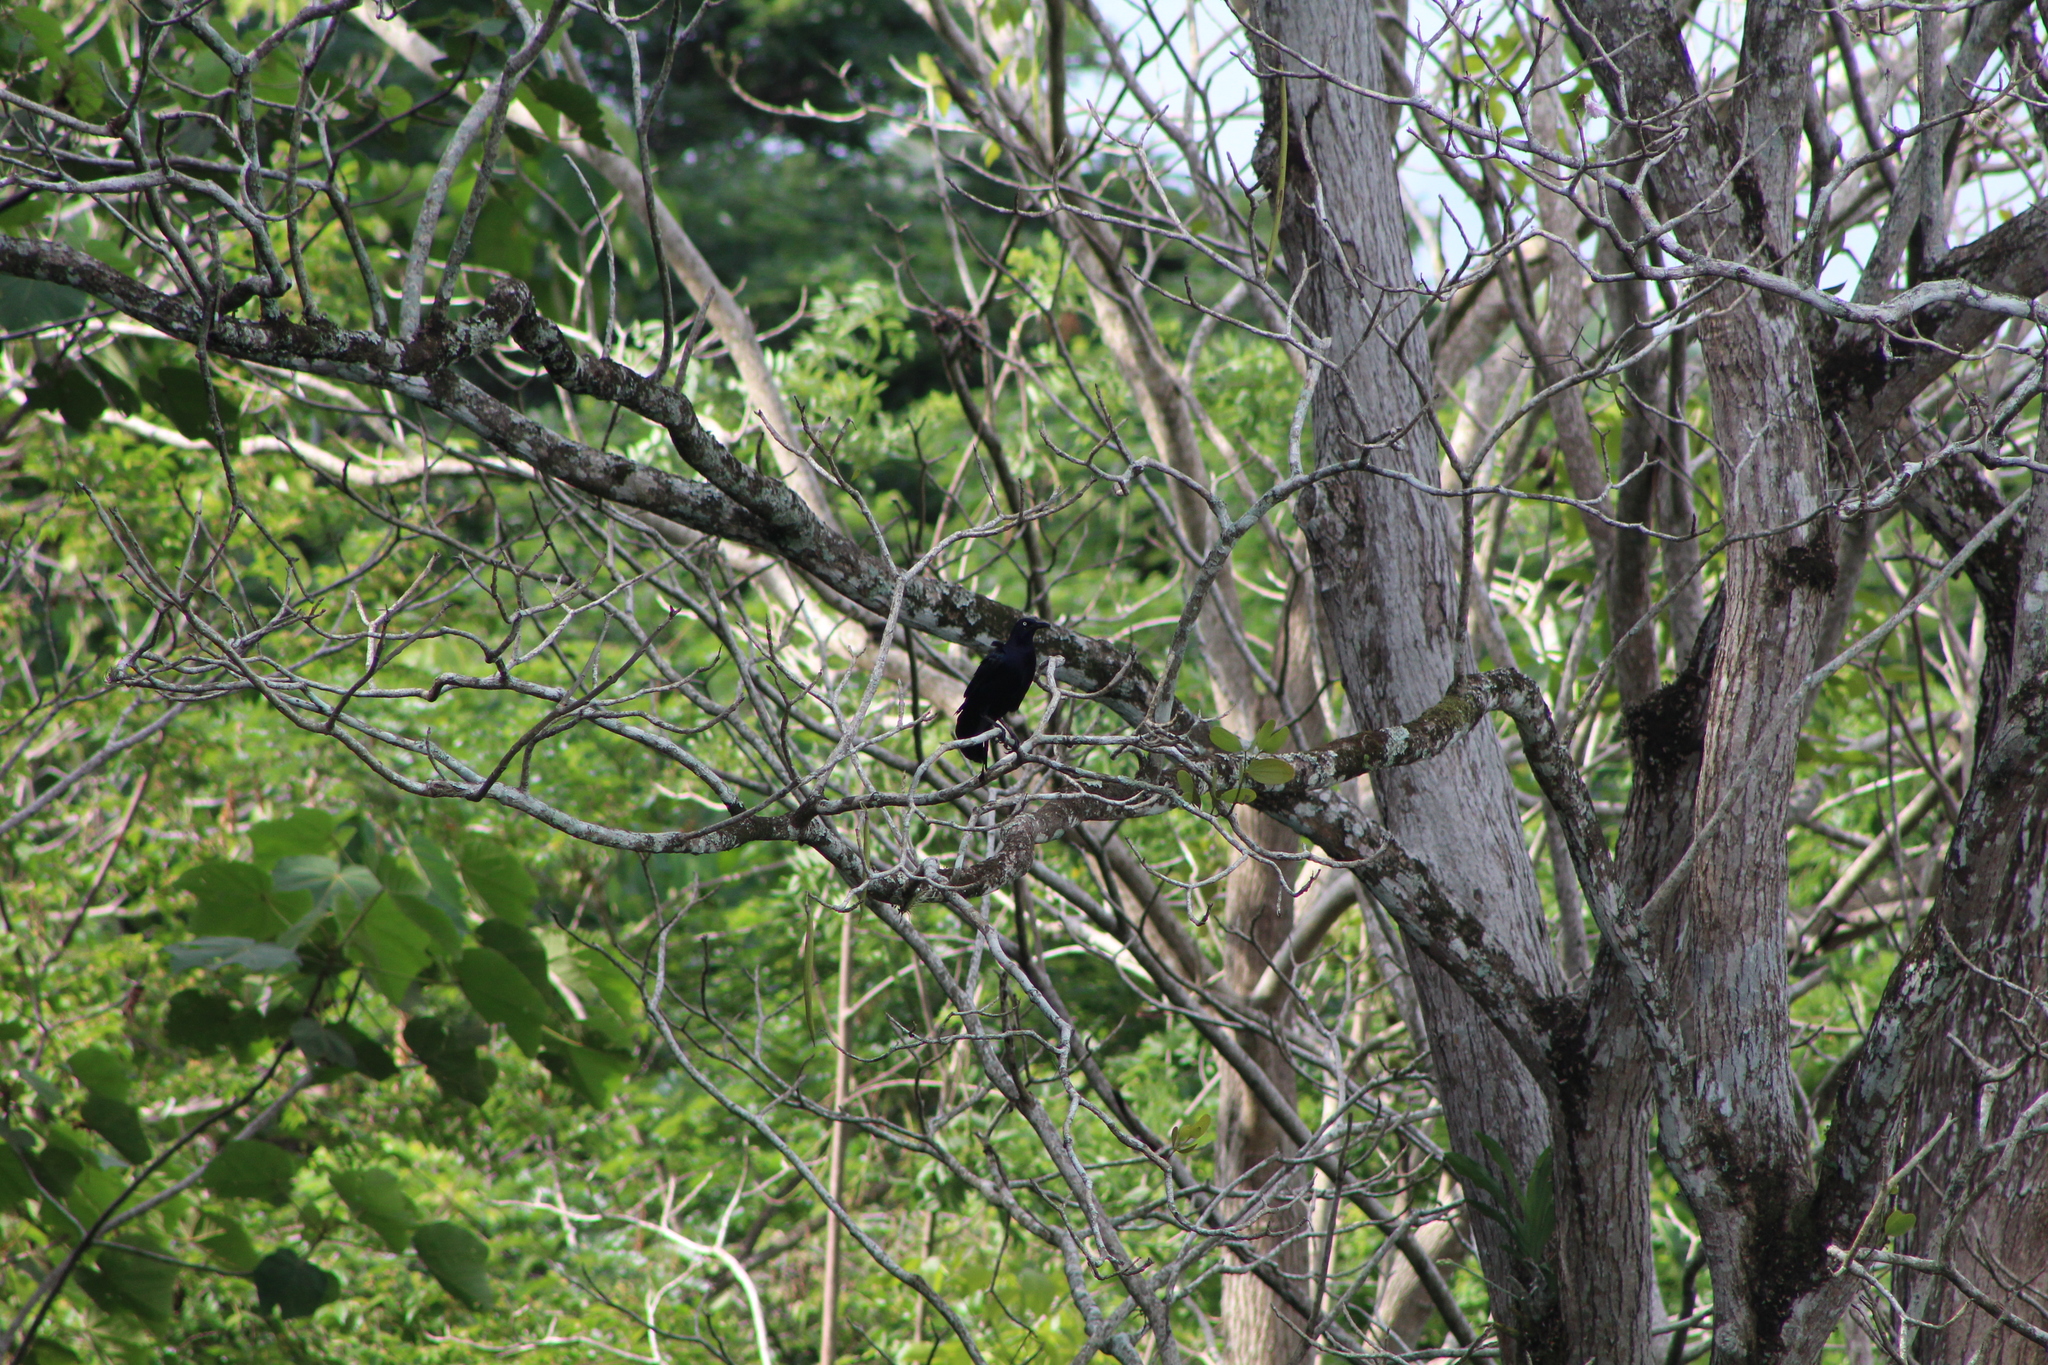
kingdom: Animalia
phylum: Chordata
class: Aves
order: Passeriformes
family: Icteridae
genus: Dives
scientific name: Dives dives
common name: Melodious blackbird
